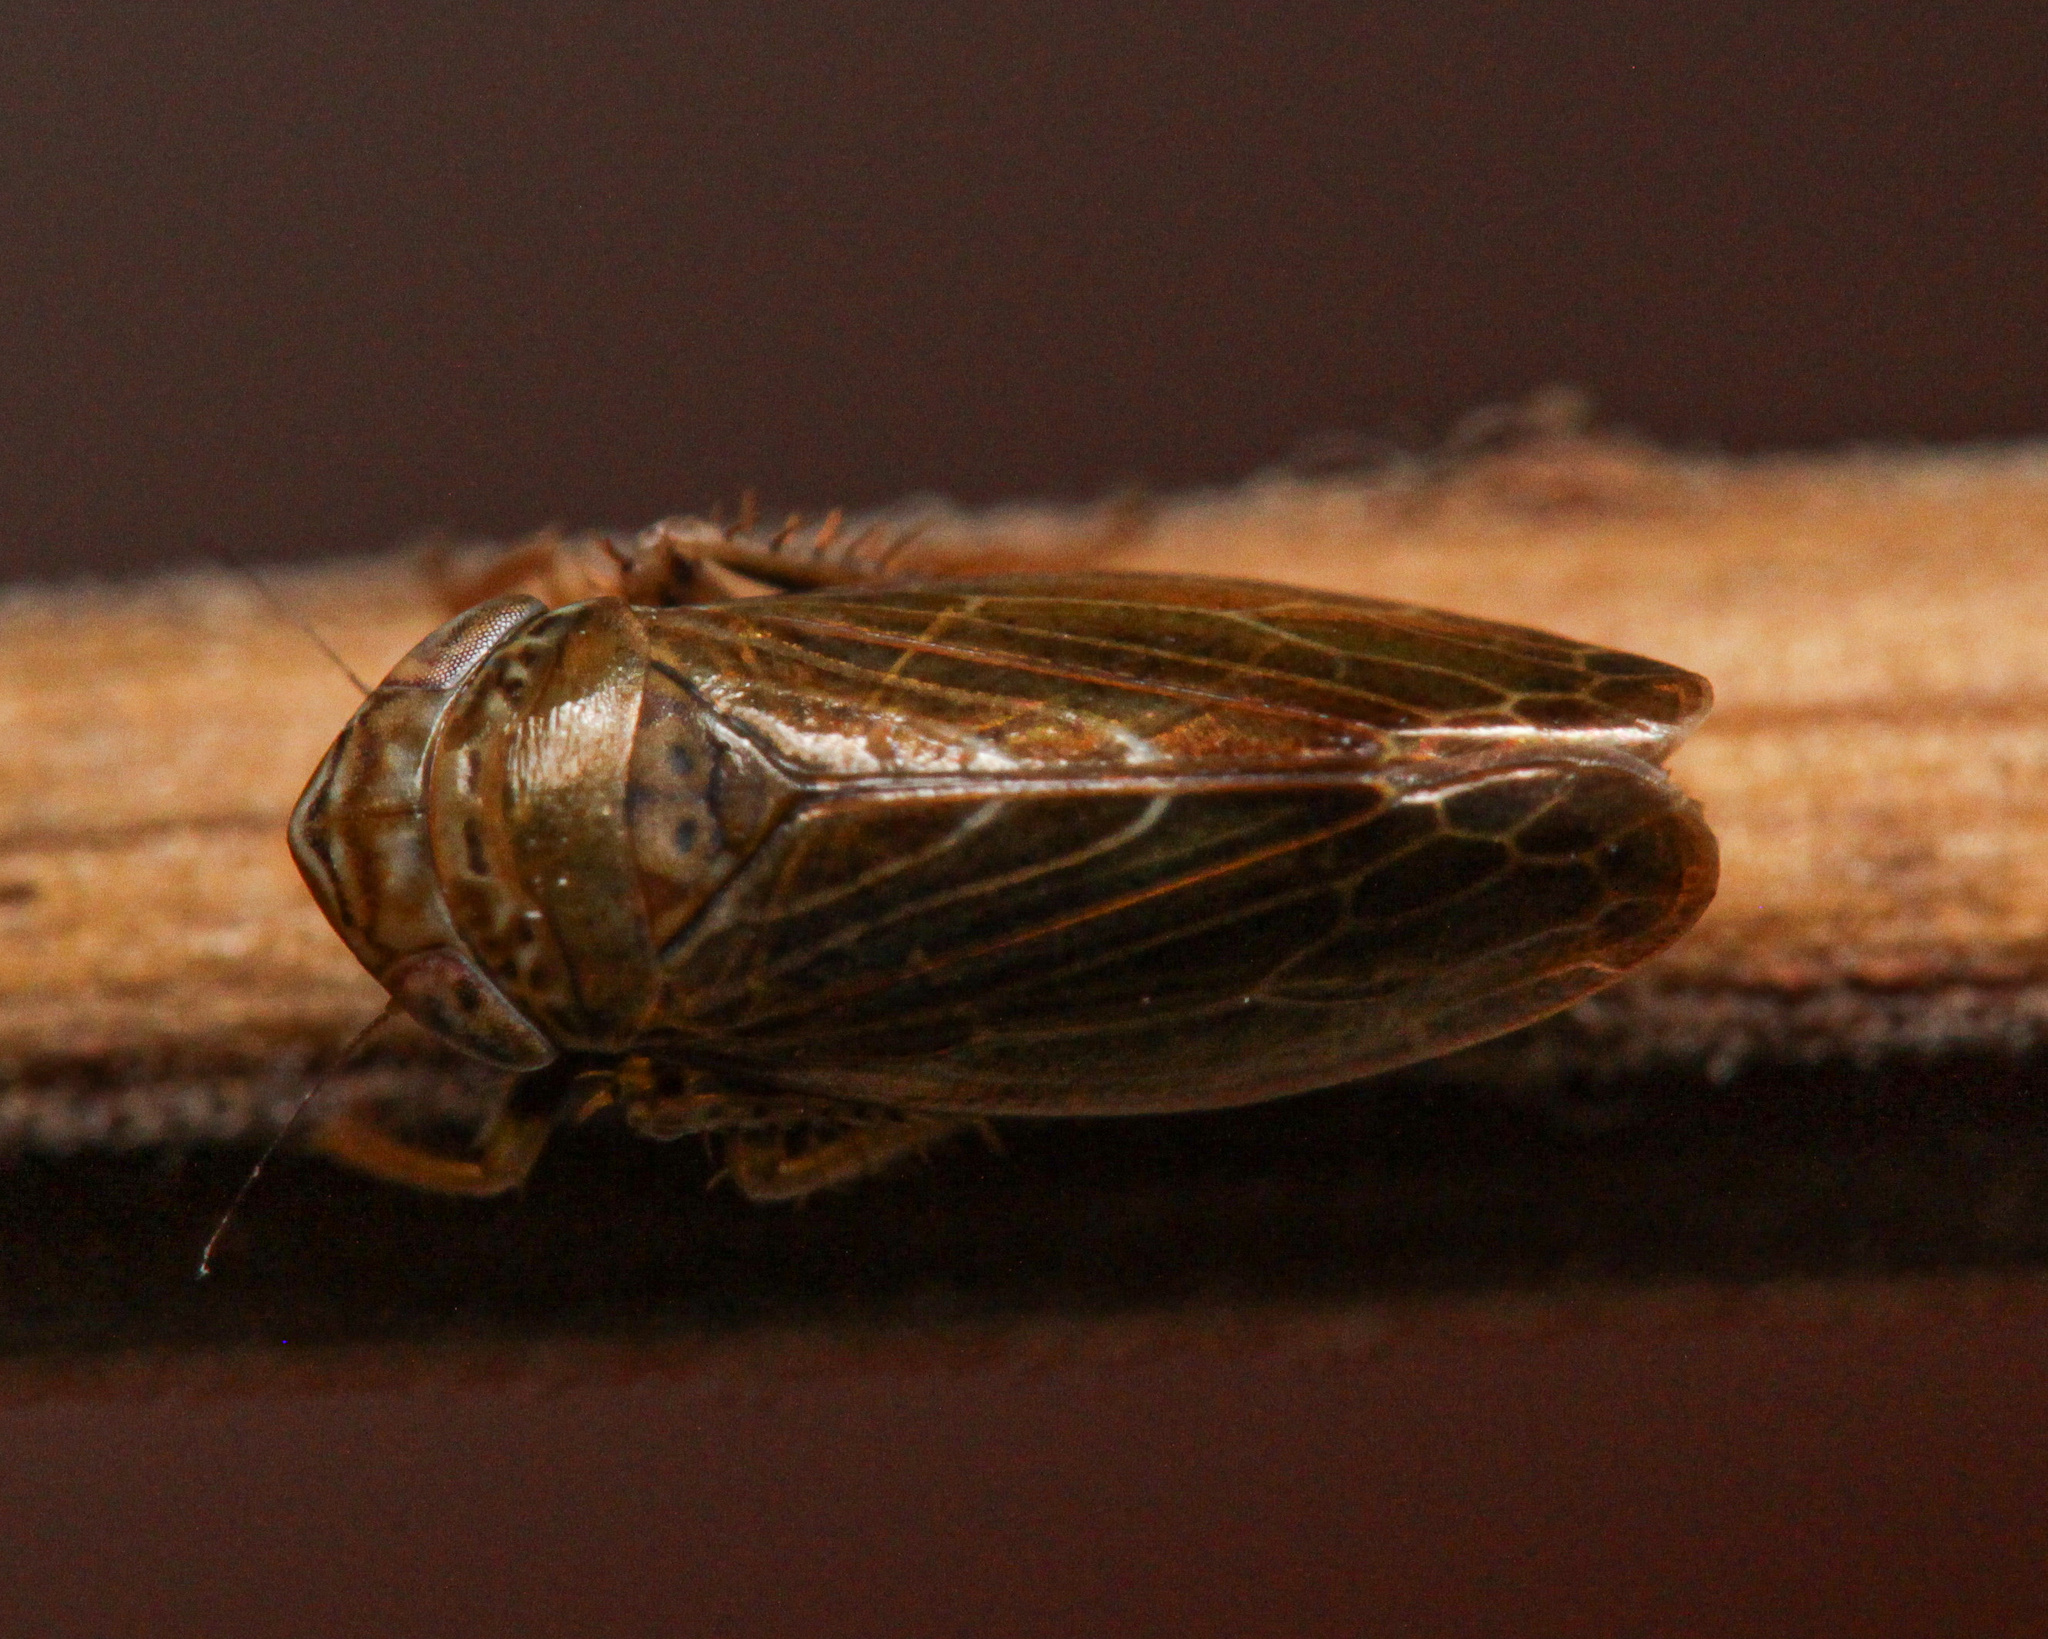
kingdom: Animalia
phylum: Arthropoda
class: Insecta
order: Hemiptera
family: Cicadellidae
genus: Speudotettix
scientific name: Speudotettix subfusculus
